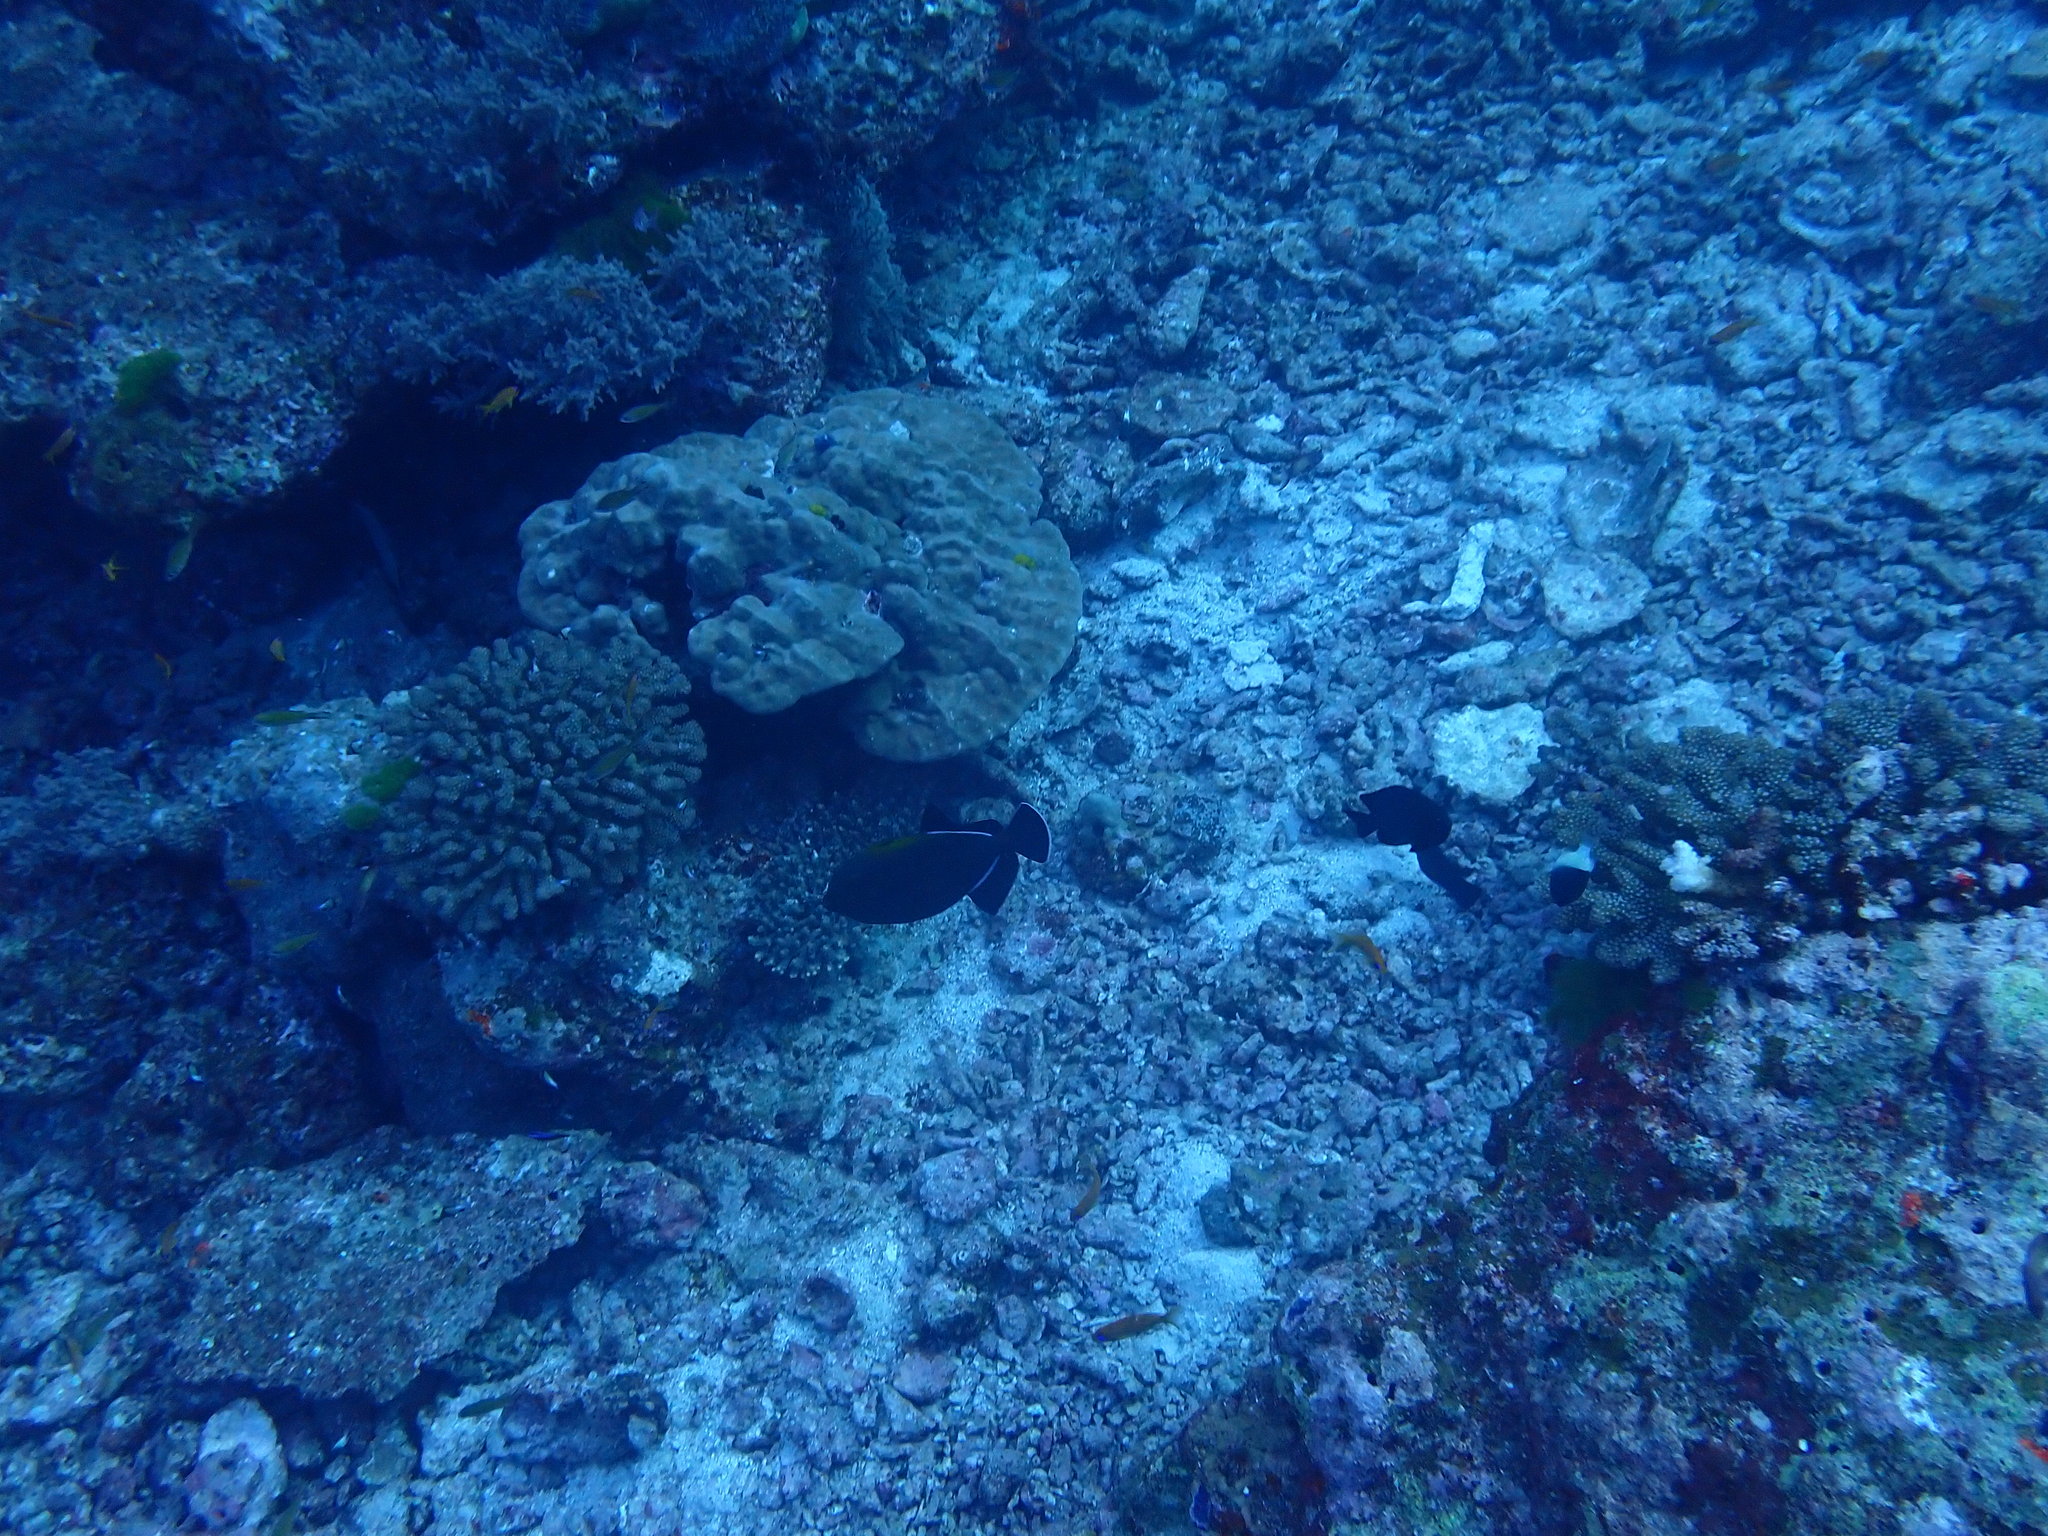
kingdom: Animalia
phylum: Chordata
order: Tetraodontiformes
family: Balistidae
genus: Melichthys
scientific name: Melichthys indicus
